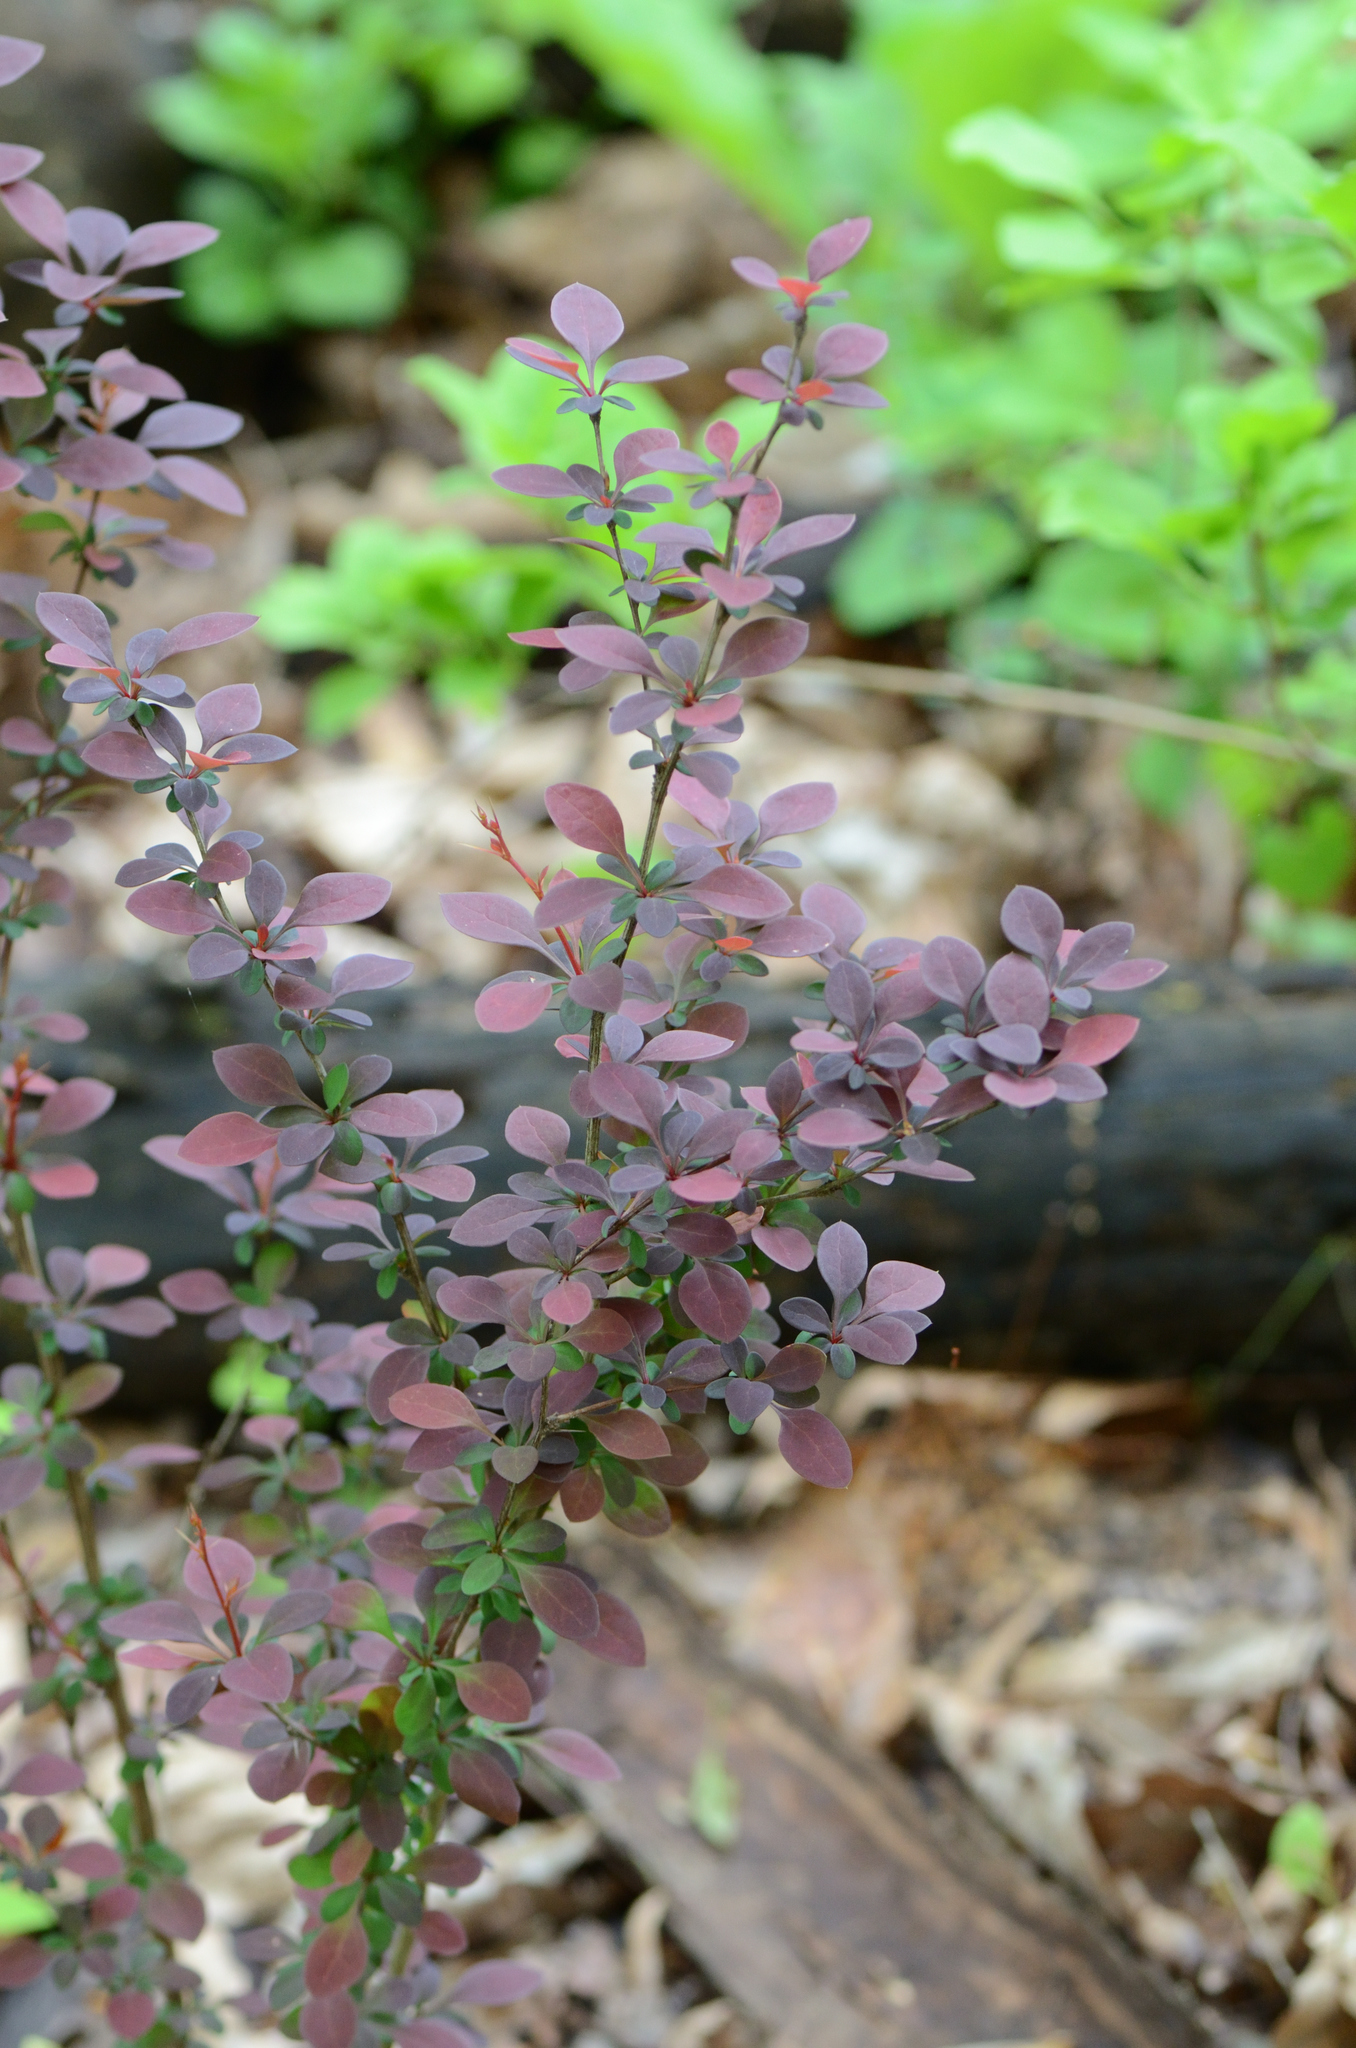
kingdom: Plantae
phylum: Tracheophyta
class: Magnoliopsida
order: Ranunculales
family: Berberidaceae
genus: Berberis
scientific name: Berberis thunbergii
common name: Japanese barberry
